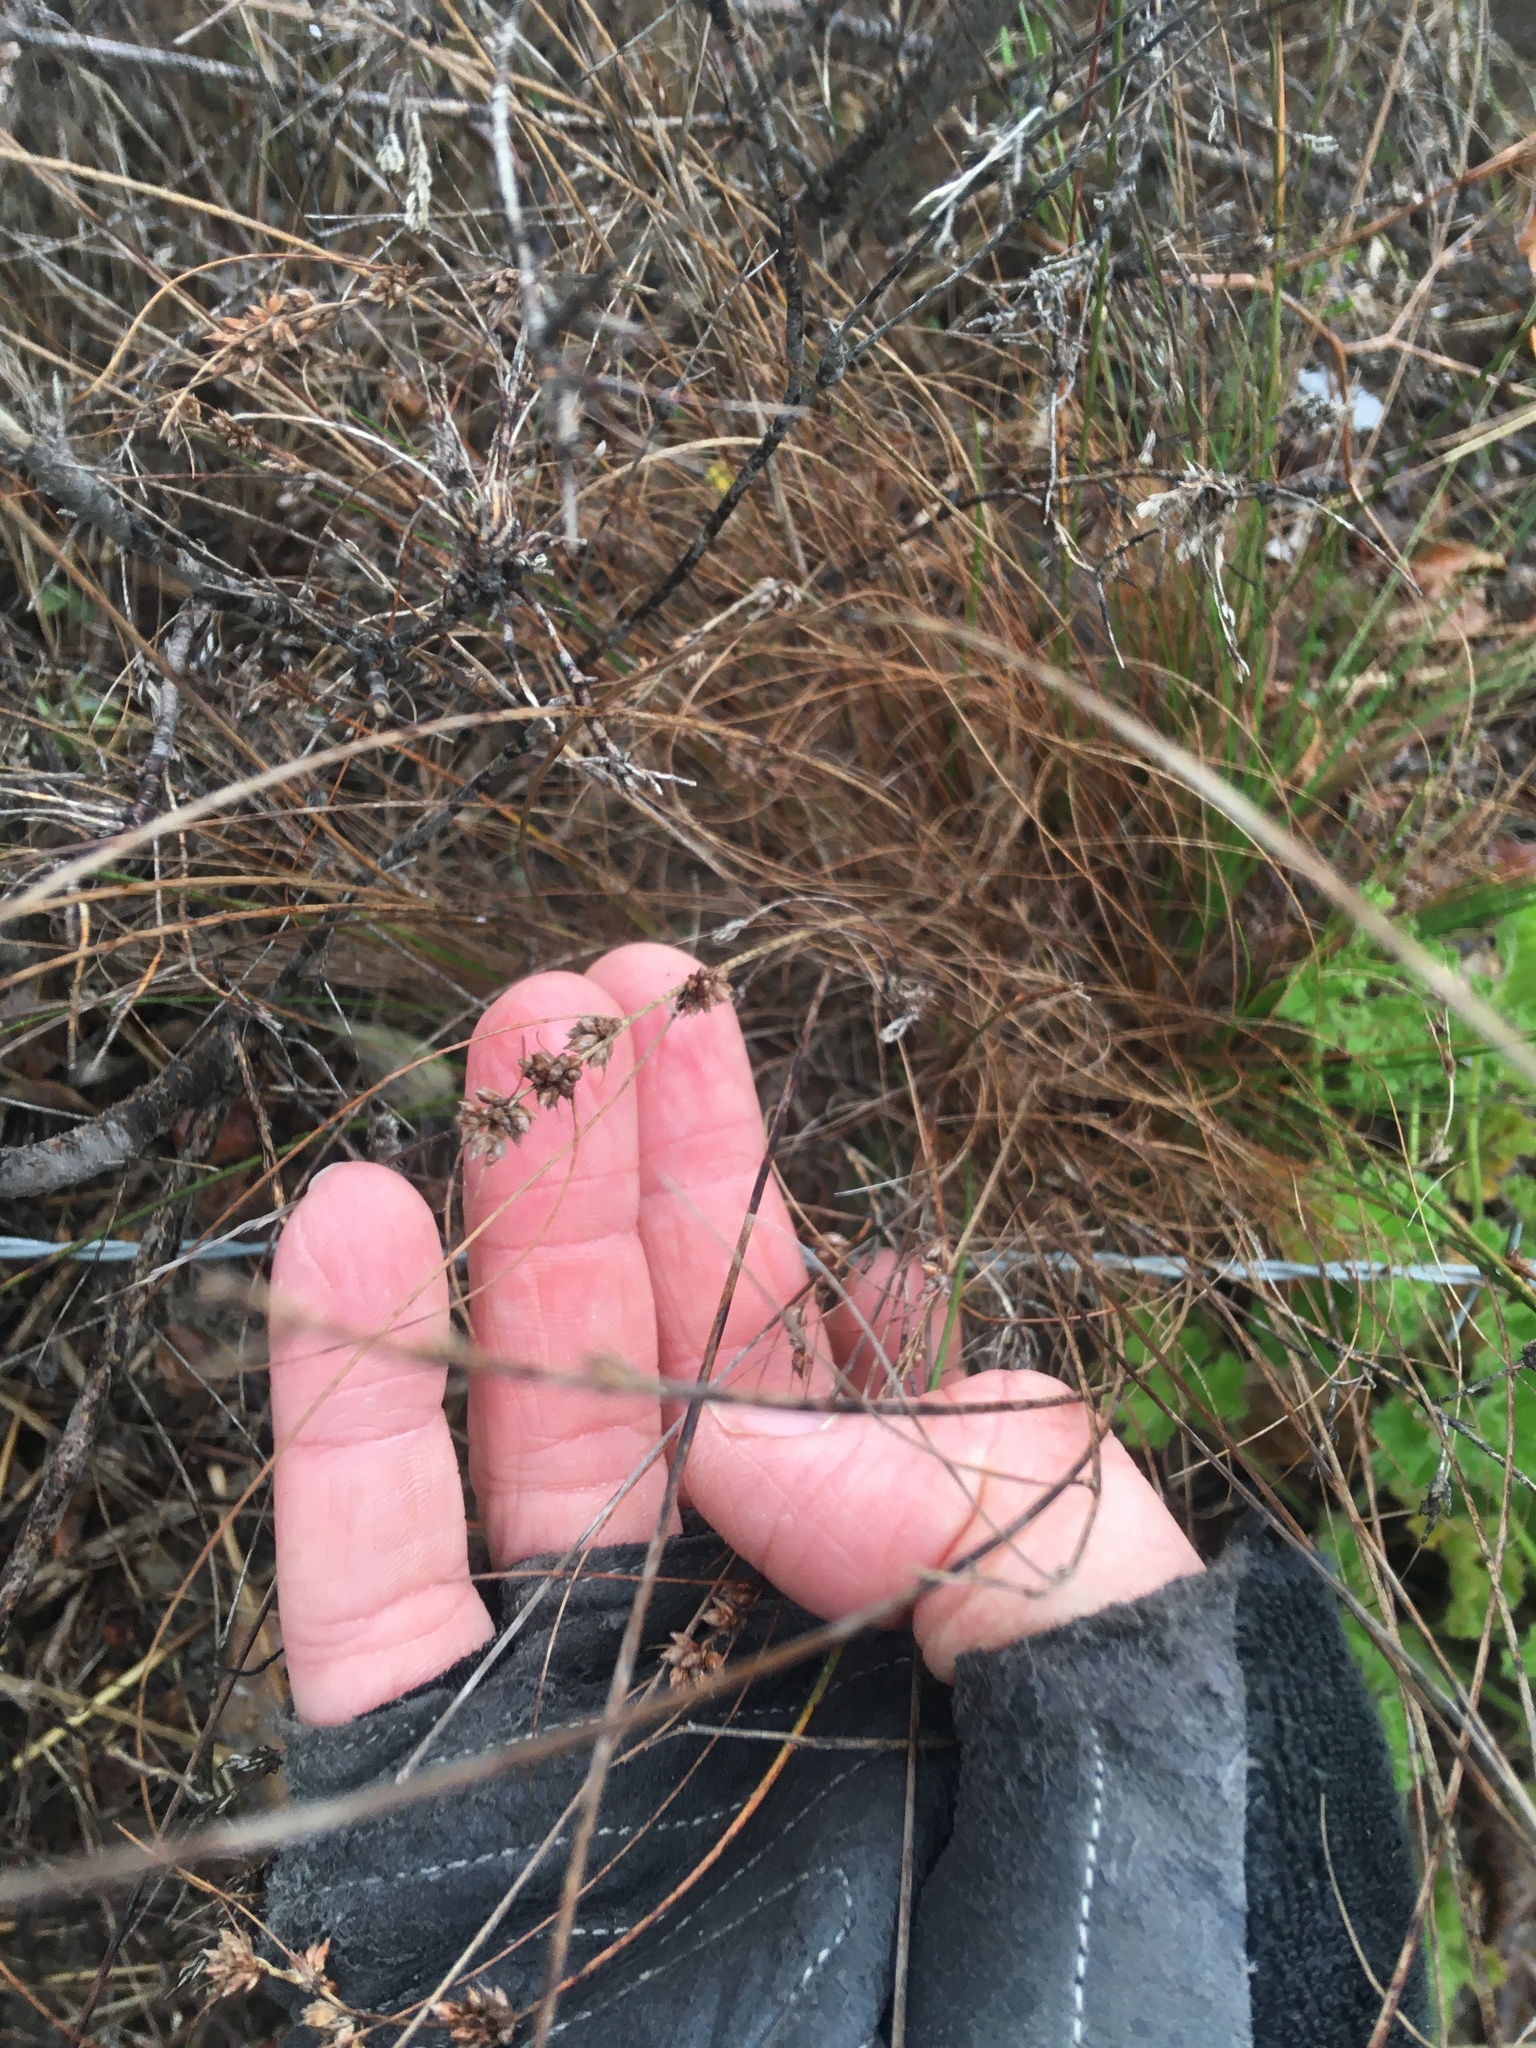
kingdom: Plantae
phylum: Tracheophyta
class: Liliopsida
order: Poales
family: Cyperaceae
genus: Ficinia
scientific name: Ficinia bulbosa
